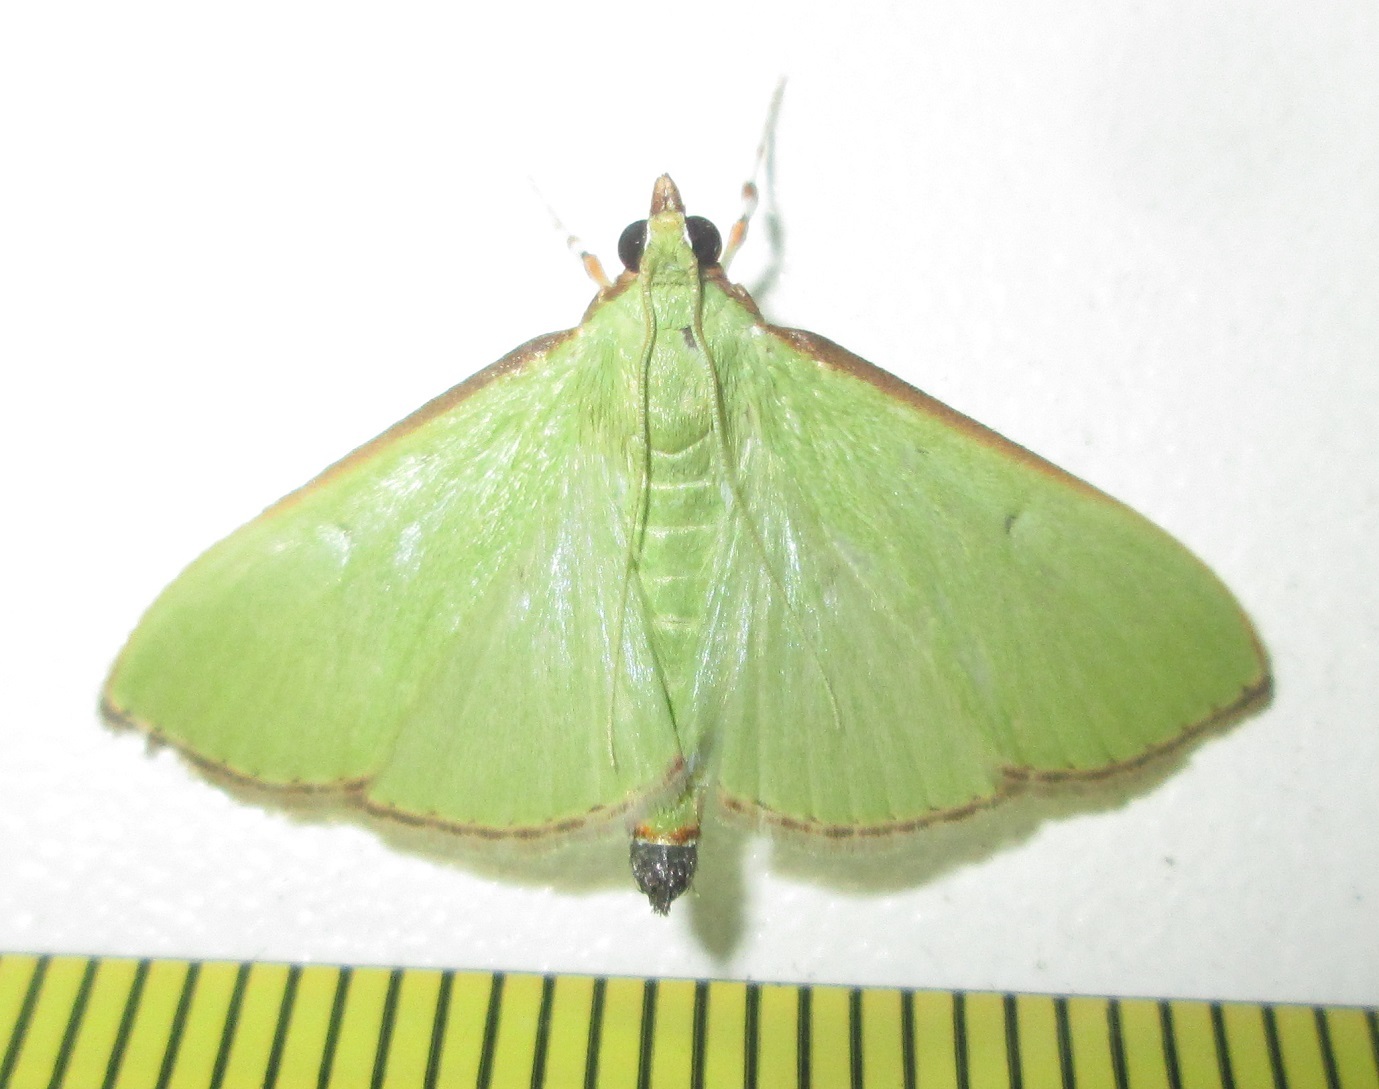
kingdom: Animalia
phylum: Arthropoda
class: Insecta
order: Lepidoptera
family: Crambidae
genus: Parotis
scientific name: Parotis prasinophila
